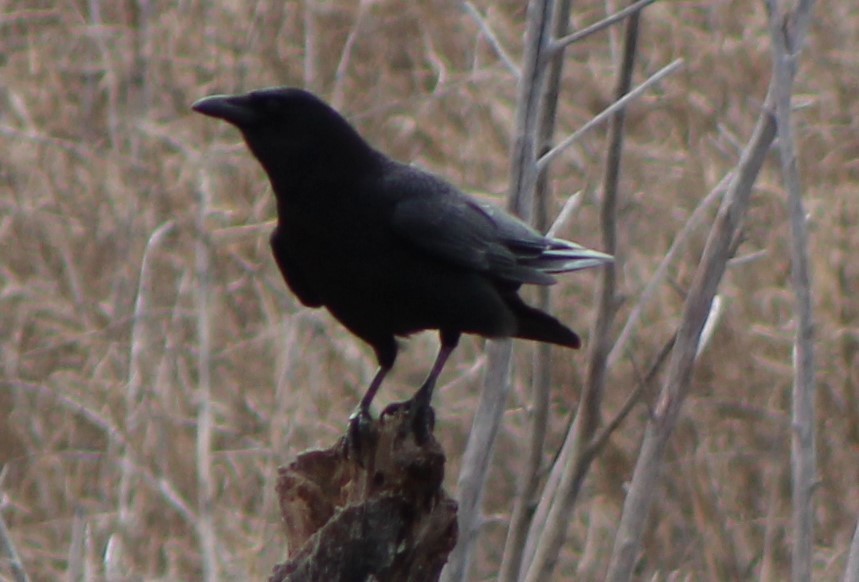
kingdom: Animalia
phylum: Chordata
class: Aves
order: Passeriformes
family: Corvidae
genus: Corvus
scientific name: Corvus brachyrhynchos
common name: American crow
